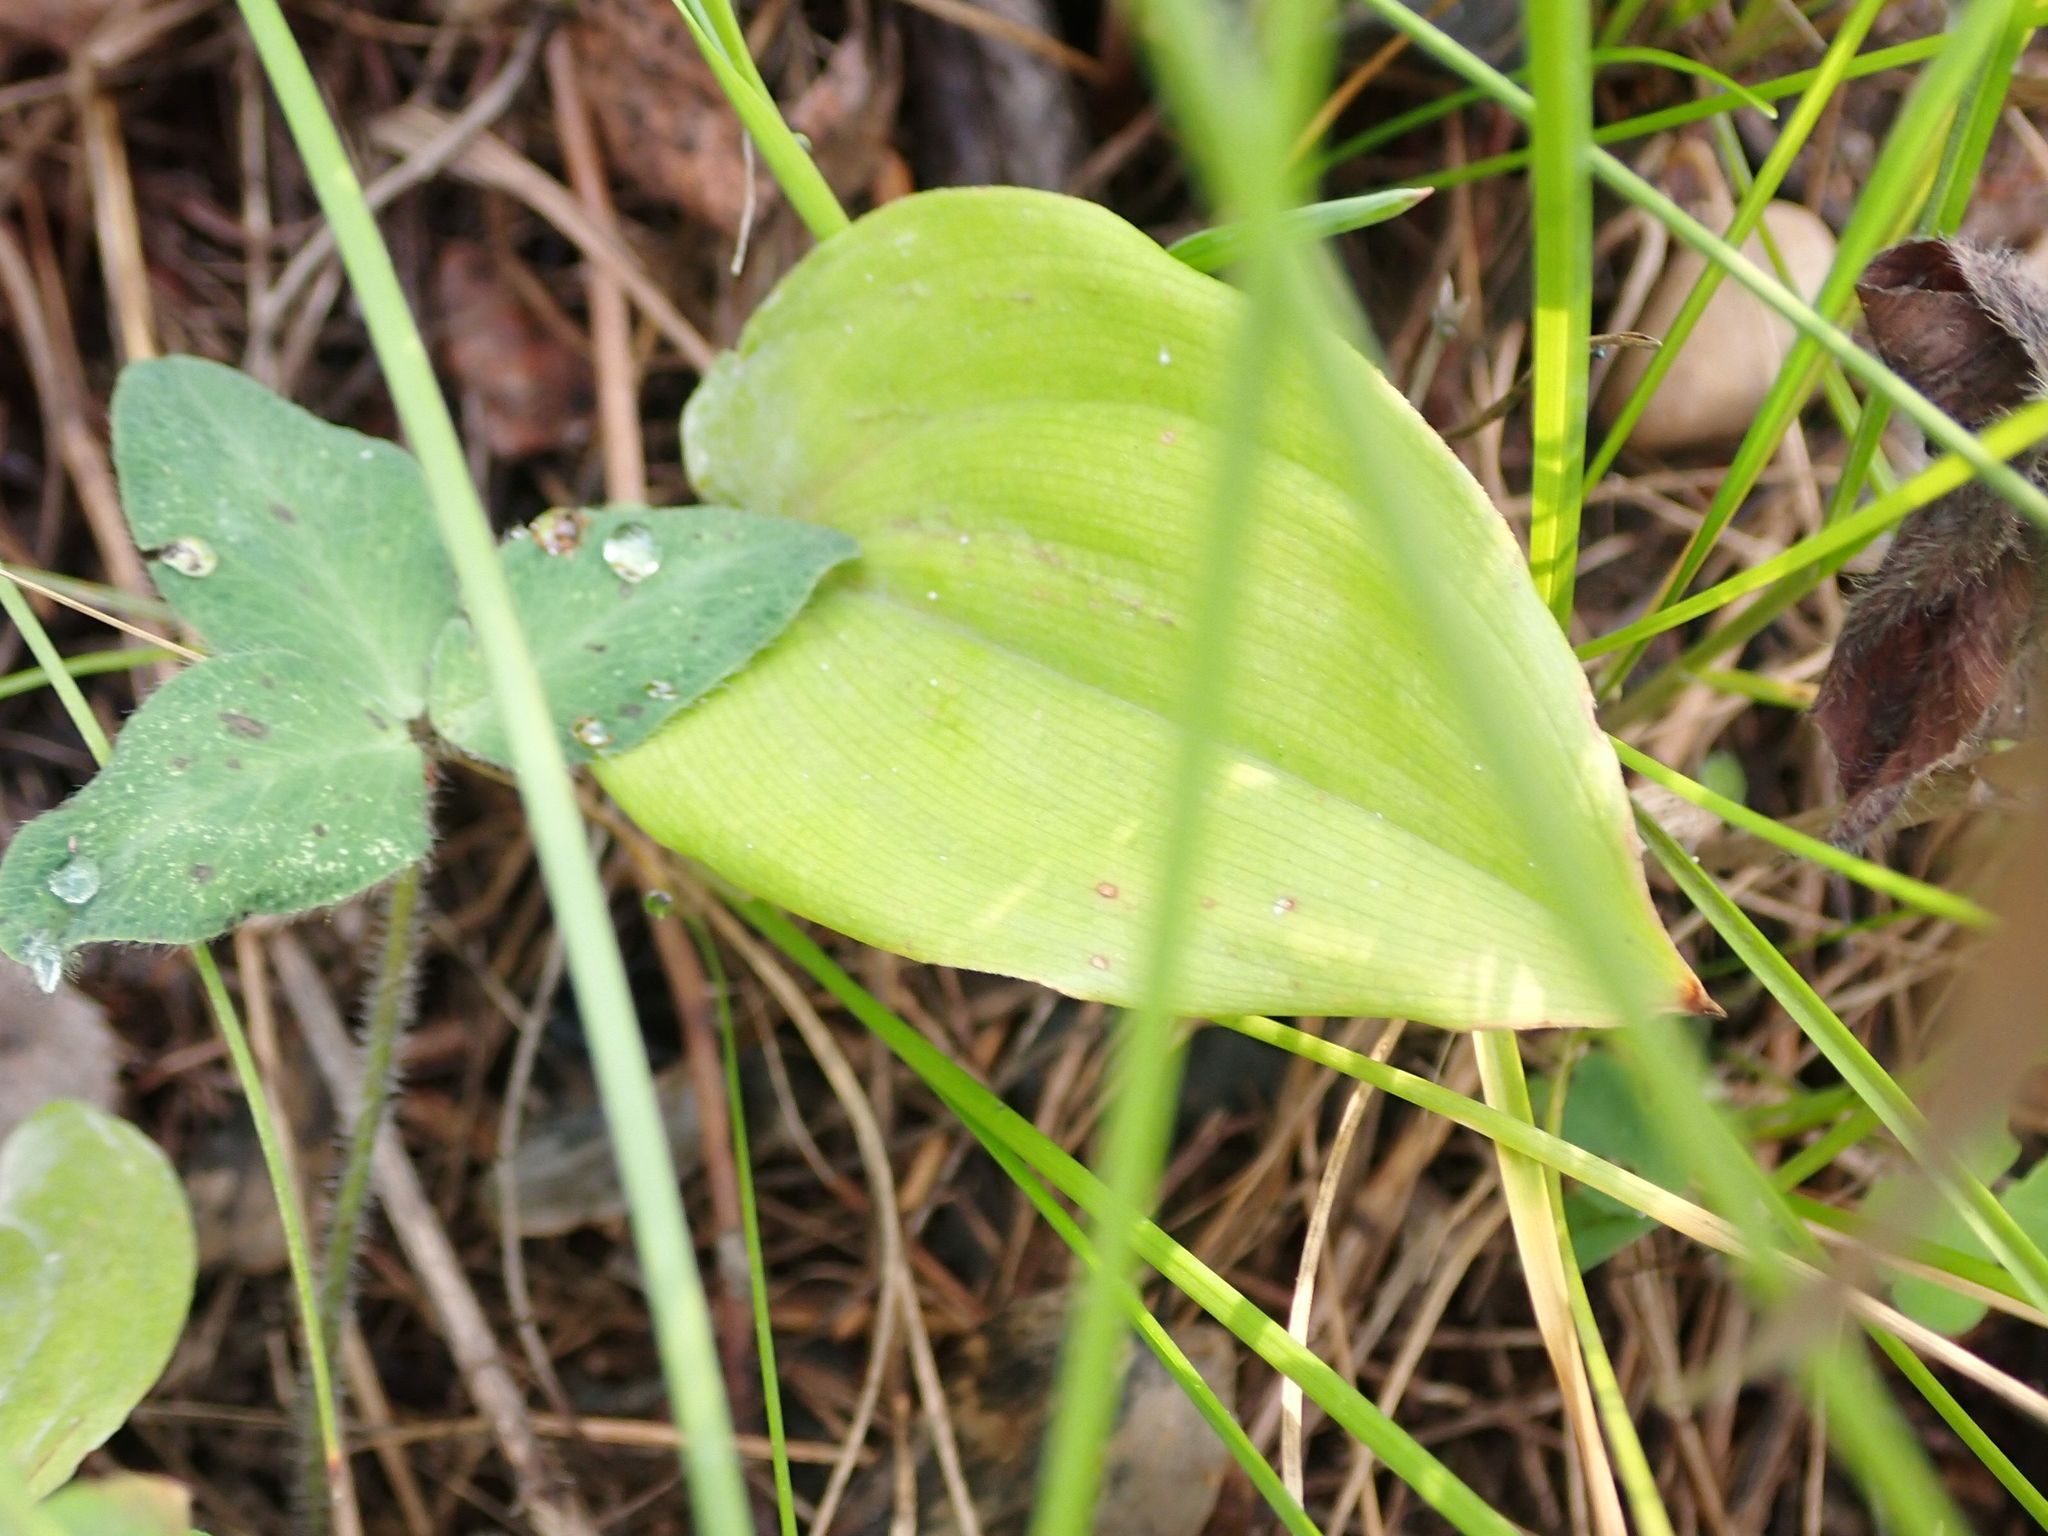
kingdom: Plantae
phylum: Tracheophyta
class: Liliopsida
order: Asparagales
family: Asparagaceae
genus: Maianthemum
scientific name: Maianthemum canadense
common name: False lily-of-the-valley
